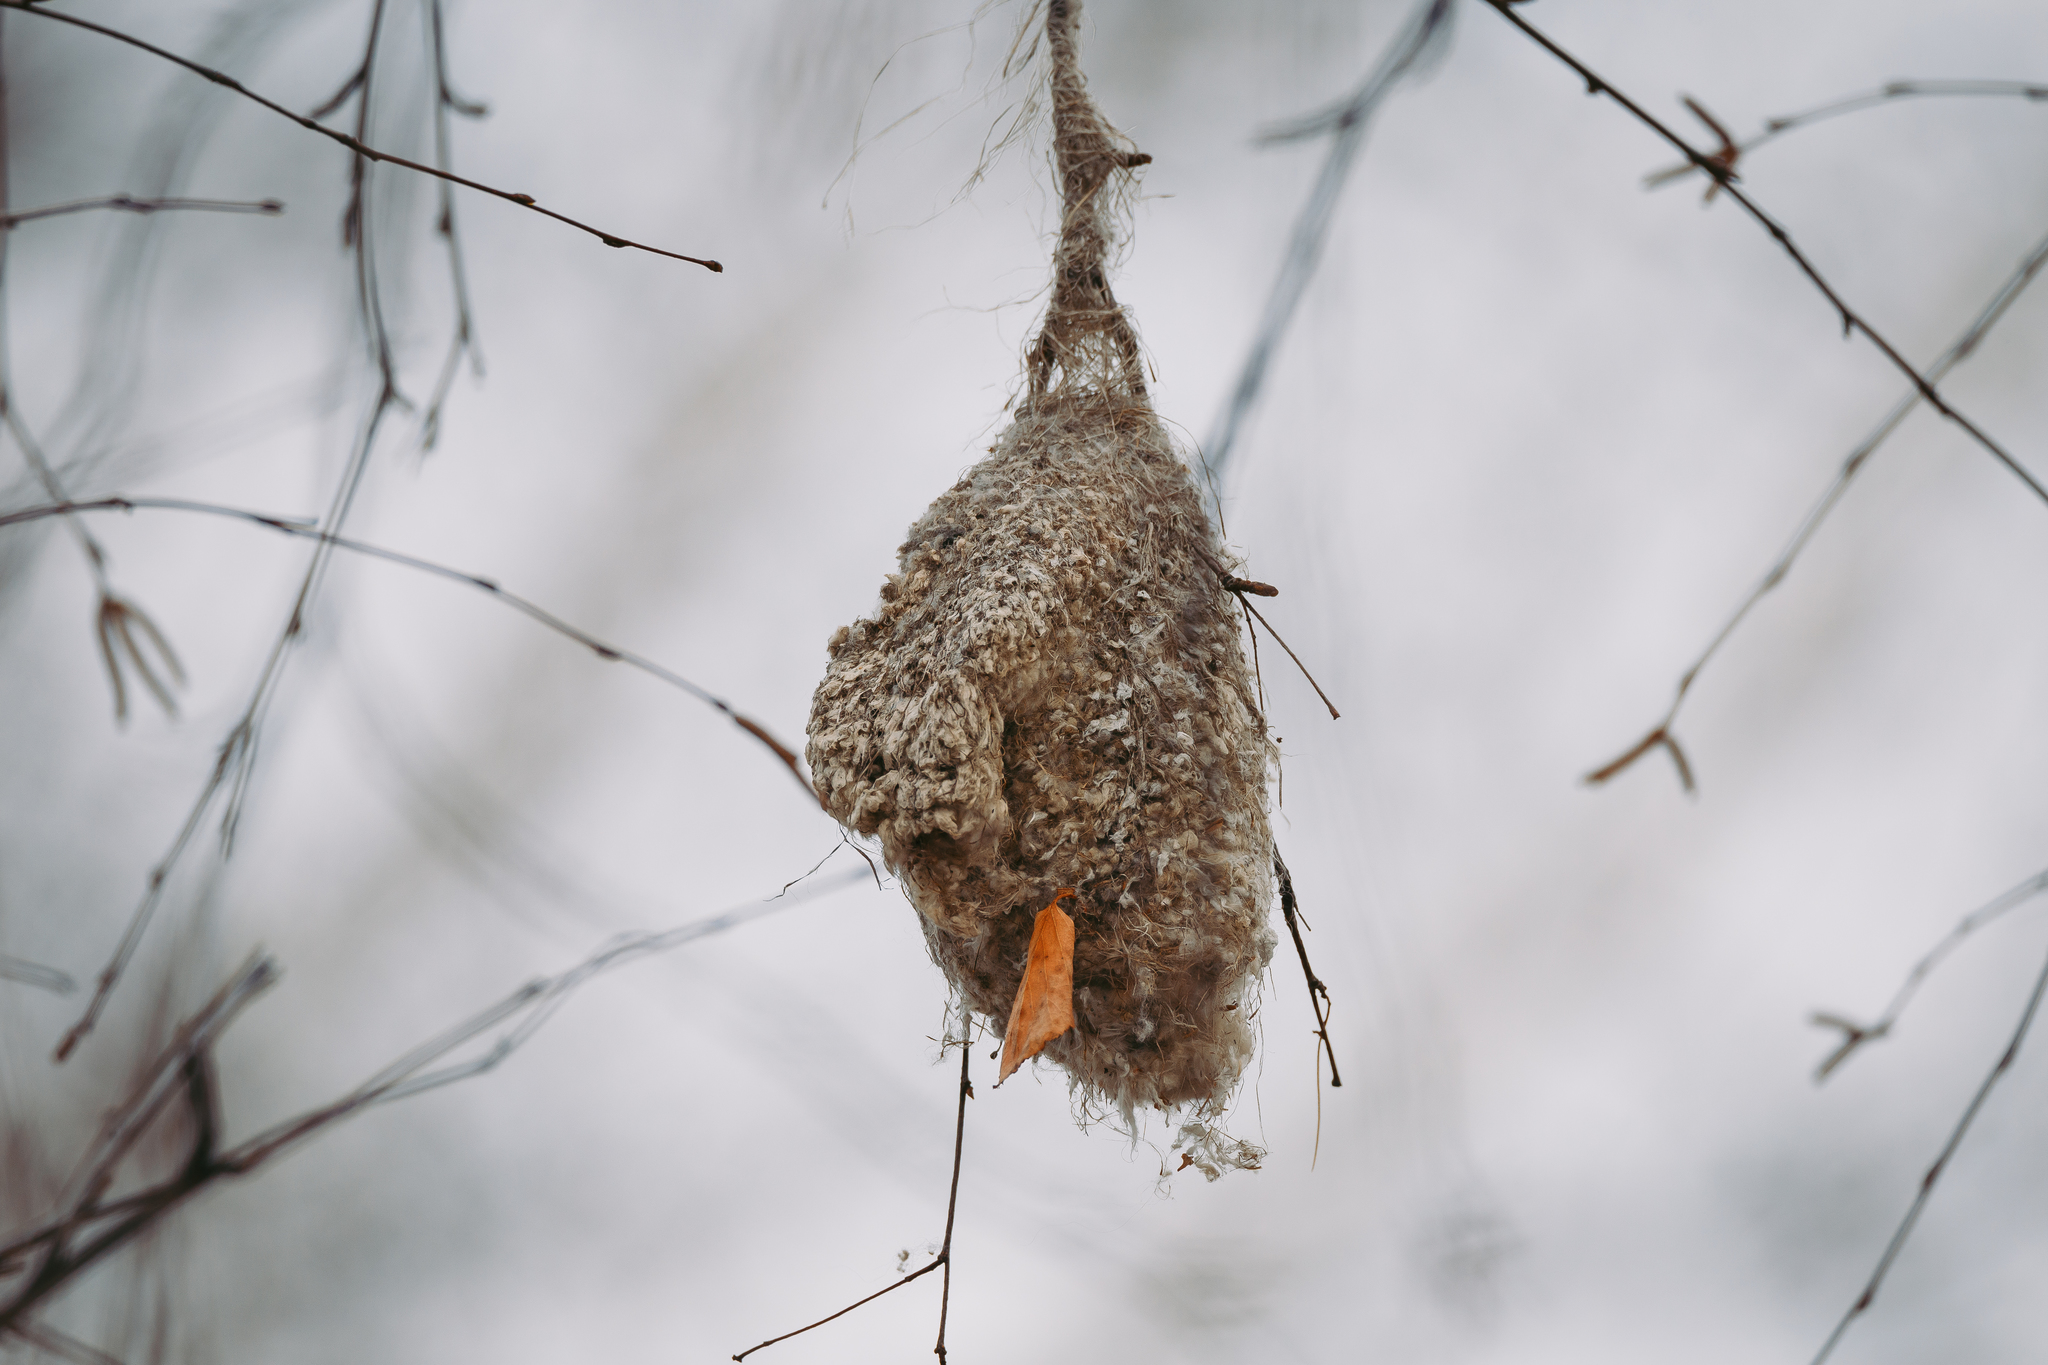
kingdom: Animalia
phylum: Chordata
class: Aves
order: Passeriformes
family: Remizidae
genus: Remiz
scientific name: Remiz pendulinus
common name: Eurasian penduline tit
